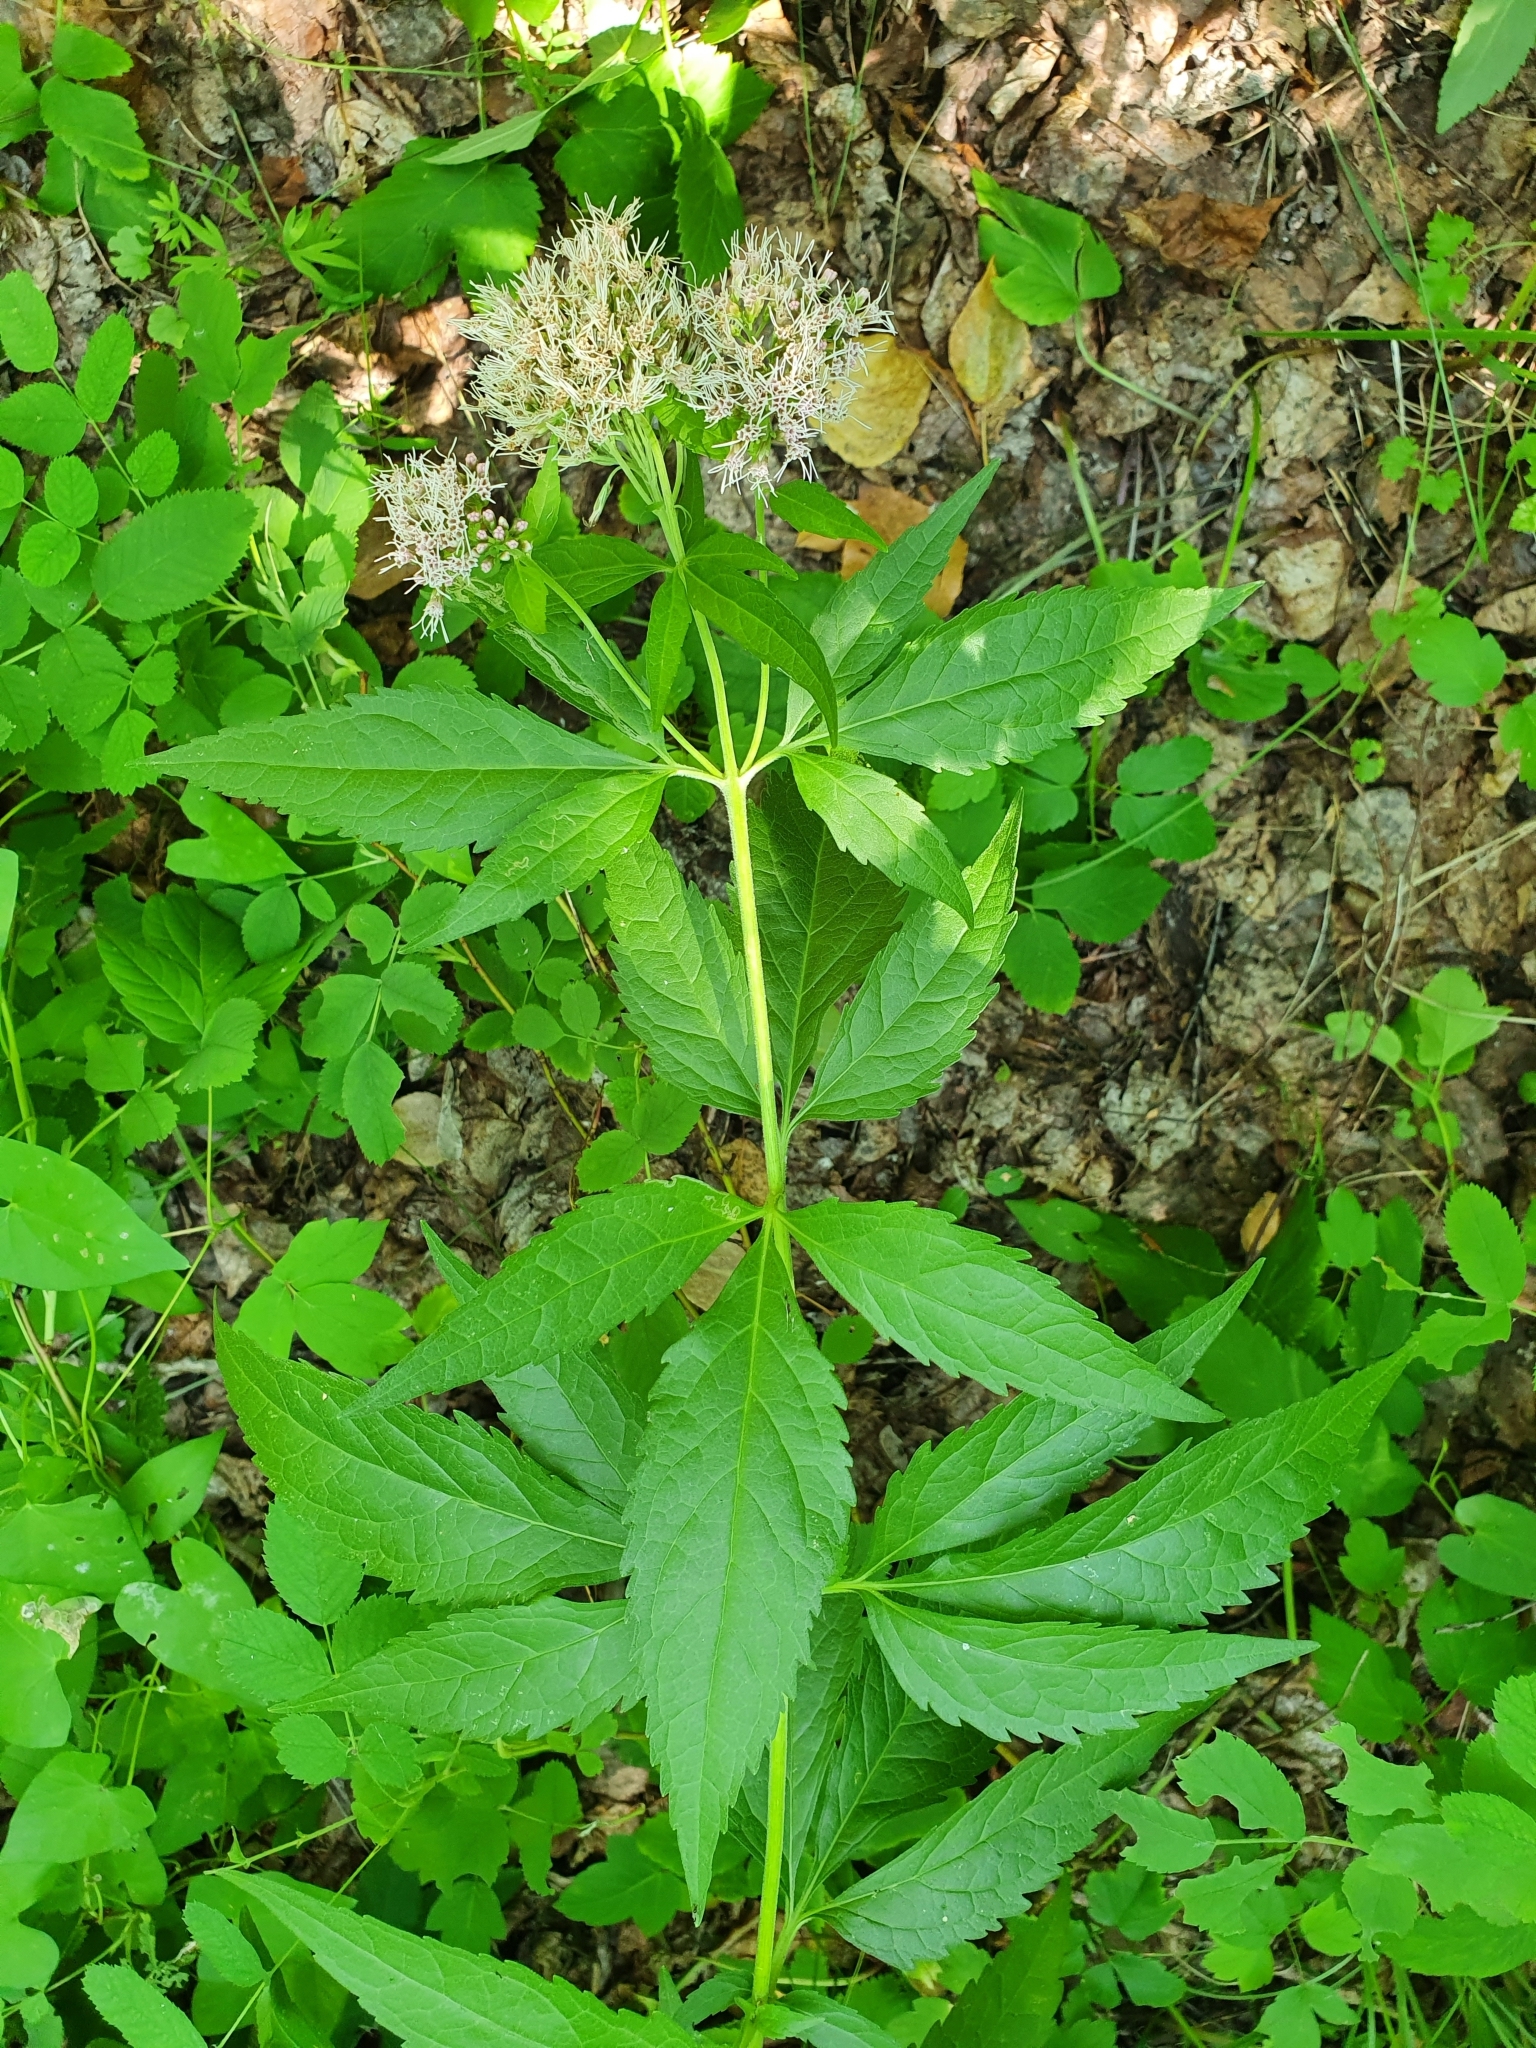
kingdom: Plantae
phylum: Tracheophyta
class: Magnoliopsida
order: Asterales
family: Asteraceae
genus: Eupatorium
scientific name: Eupatorium cannabinum
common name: Hemp-agrimony
